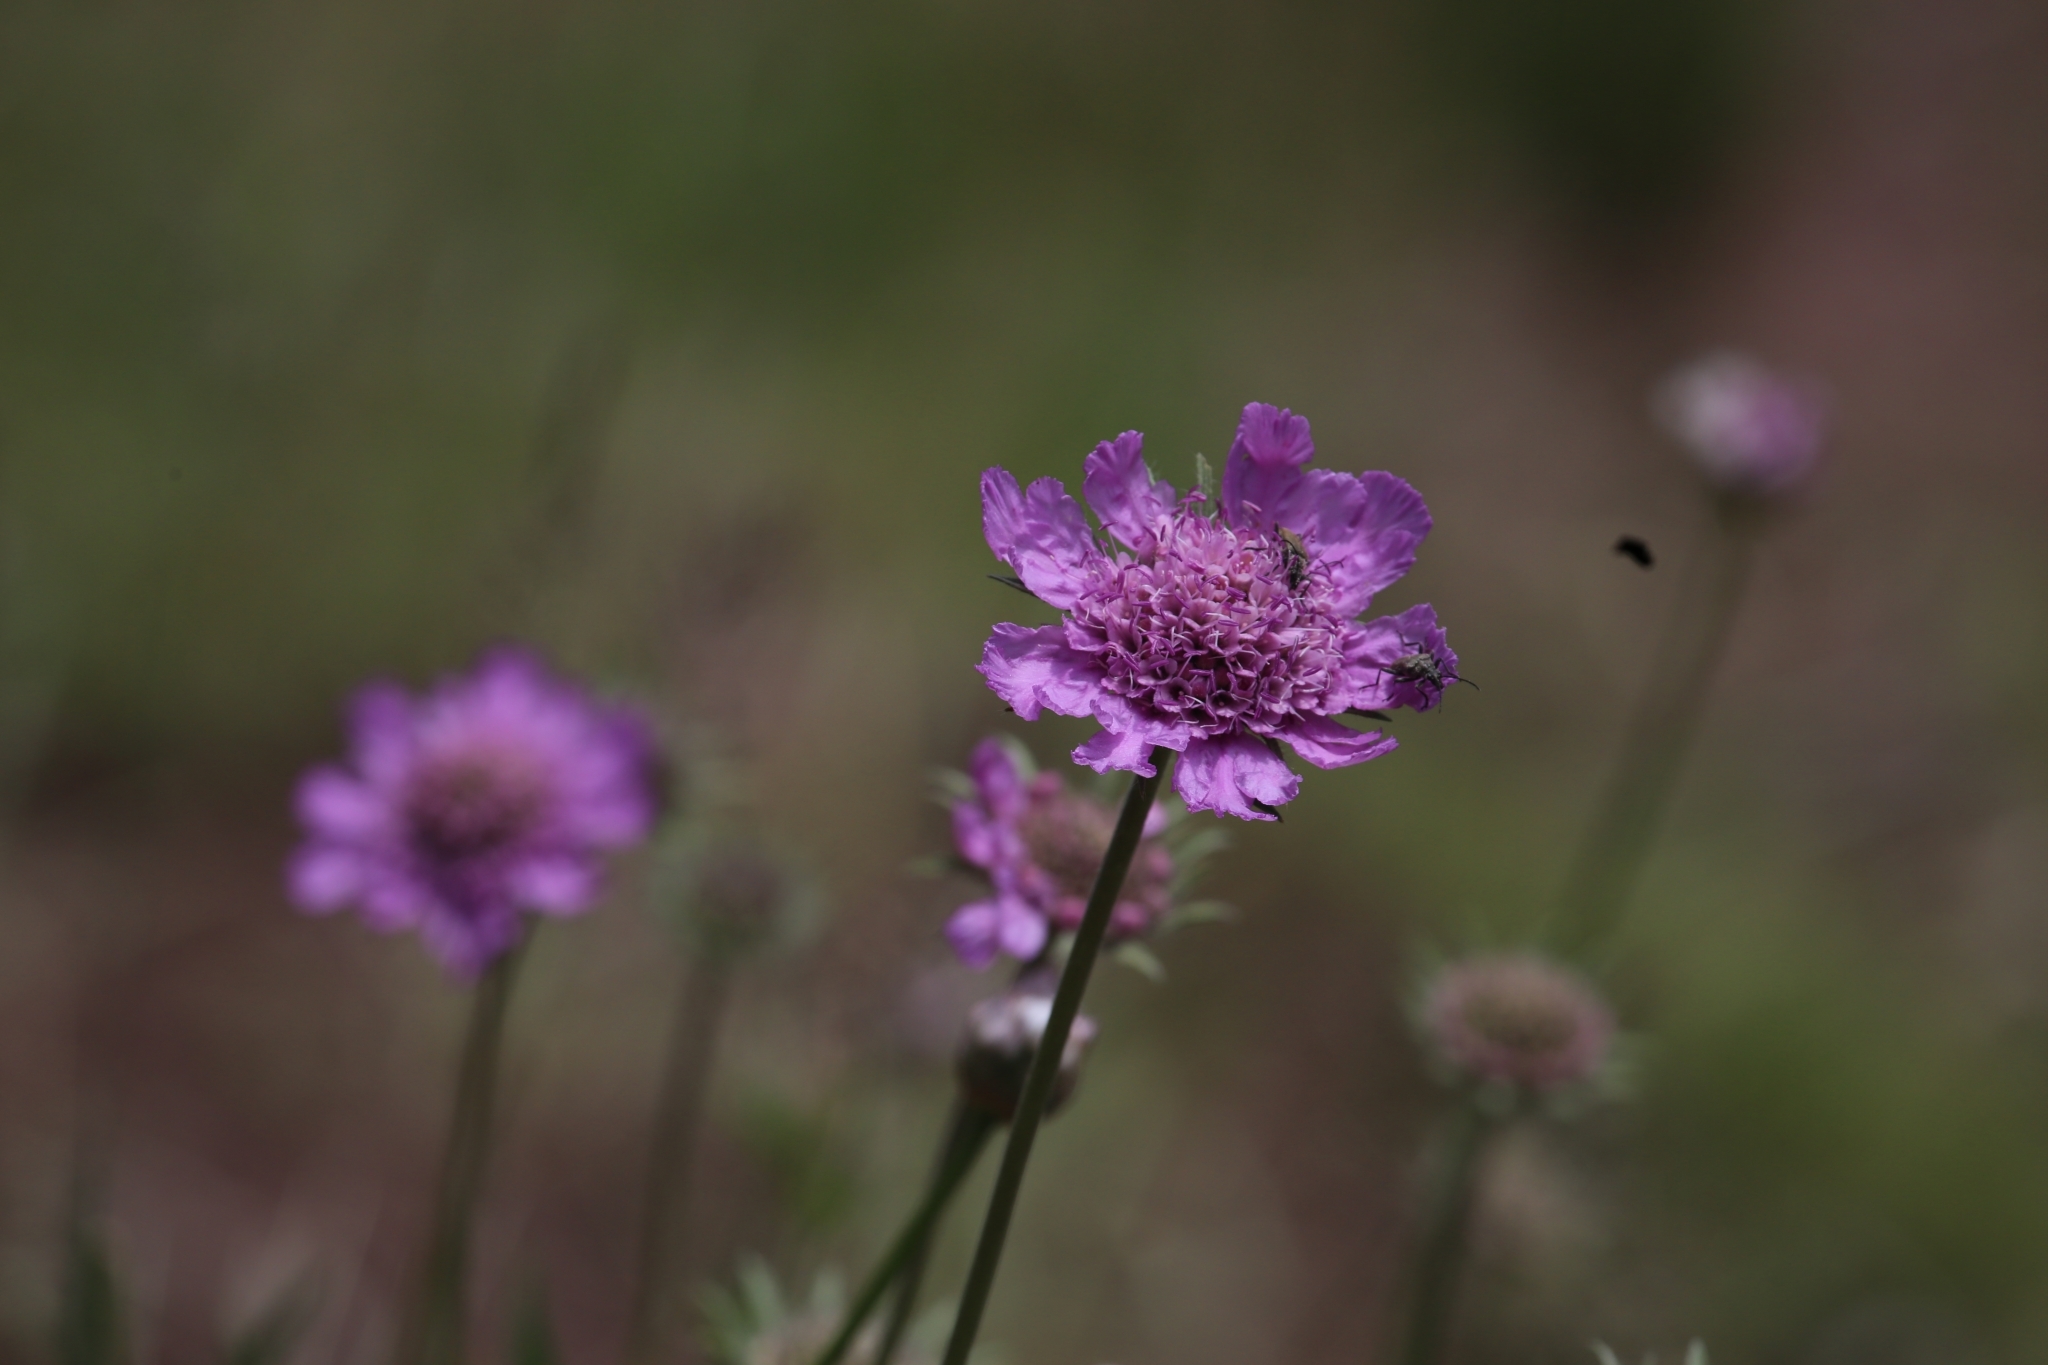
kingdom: Plantae
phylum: Tracheophyta
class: Magnoliopsida
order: Dipsacales
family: Caprifoliaceae
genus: Lomelosia
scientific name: Lomelosia alpestris
